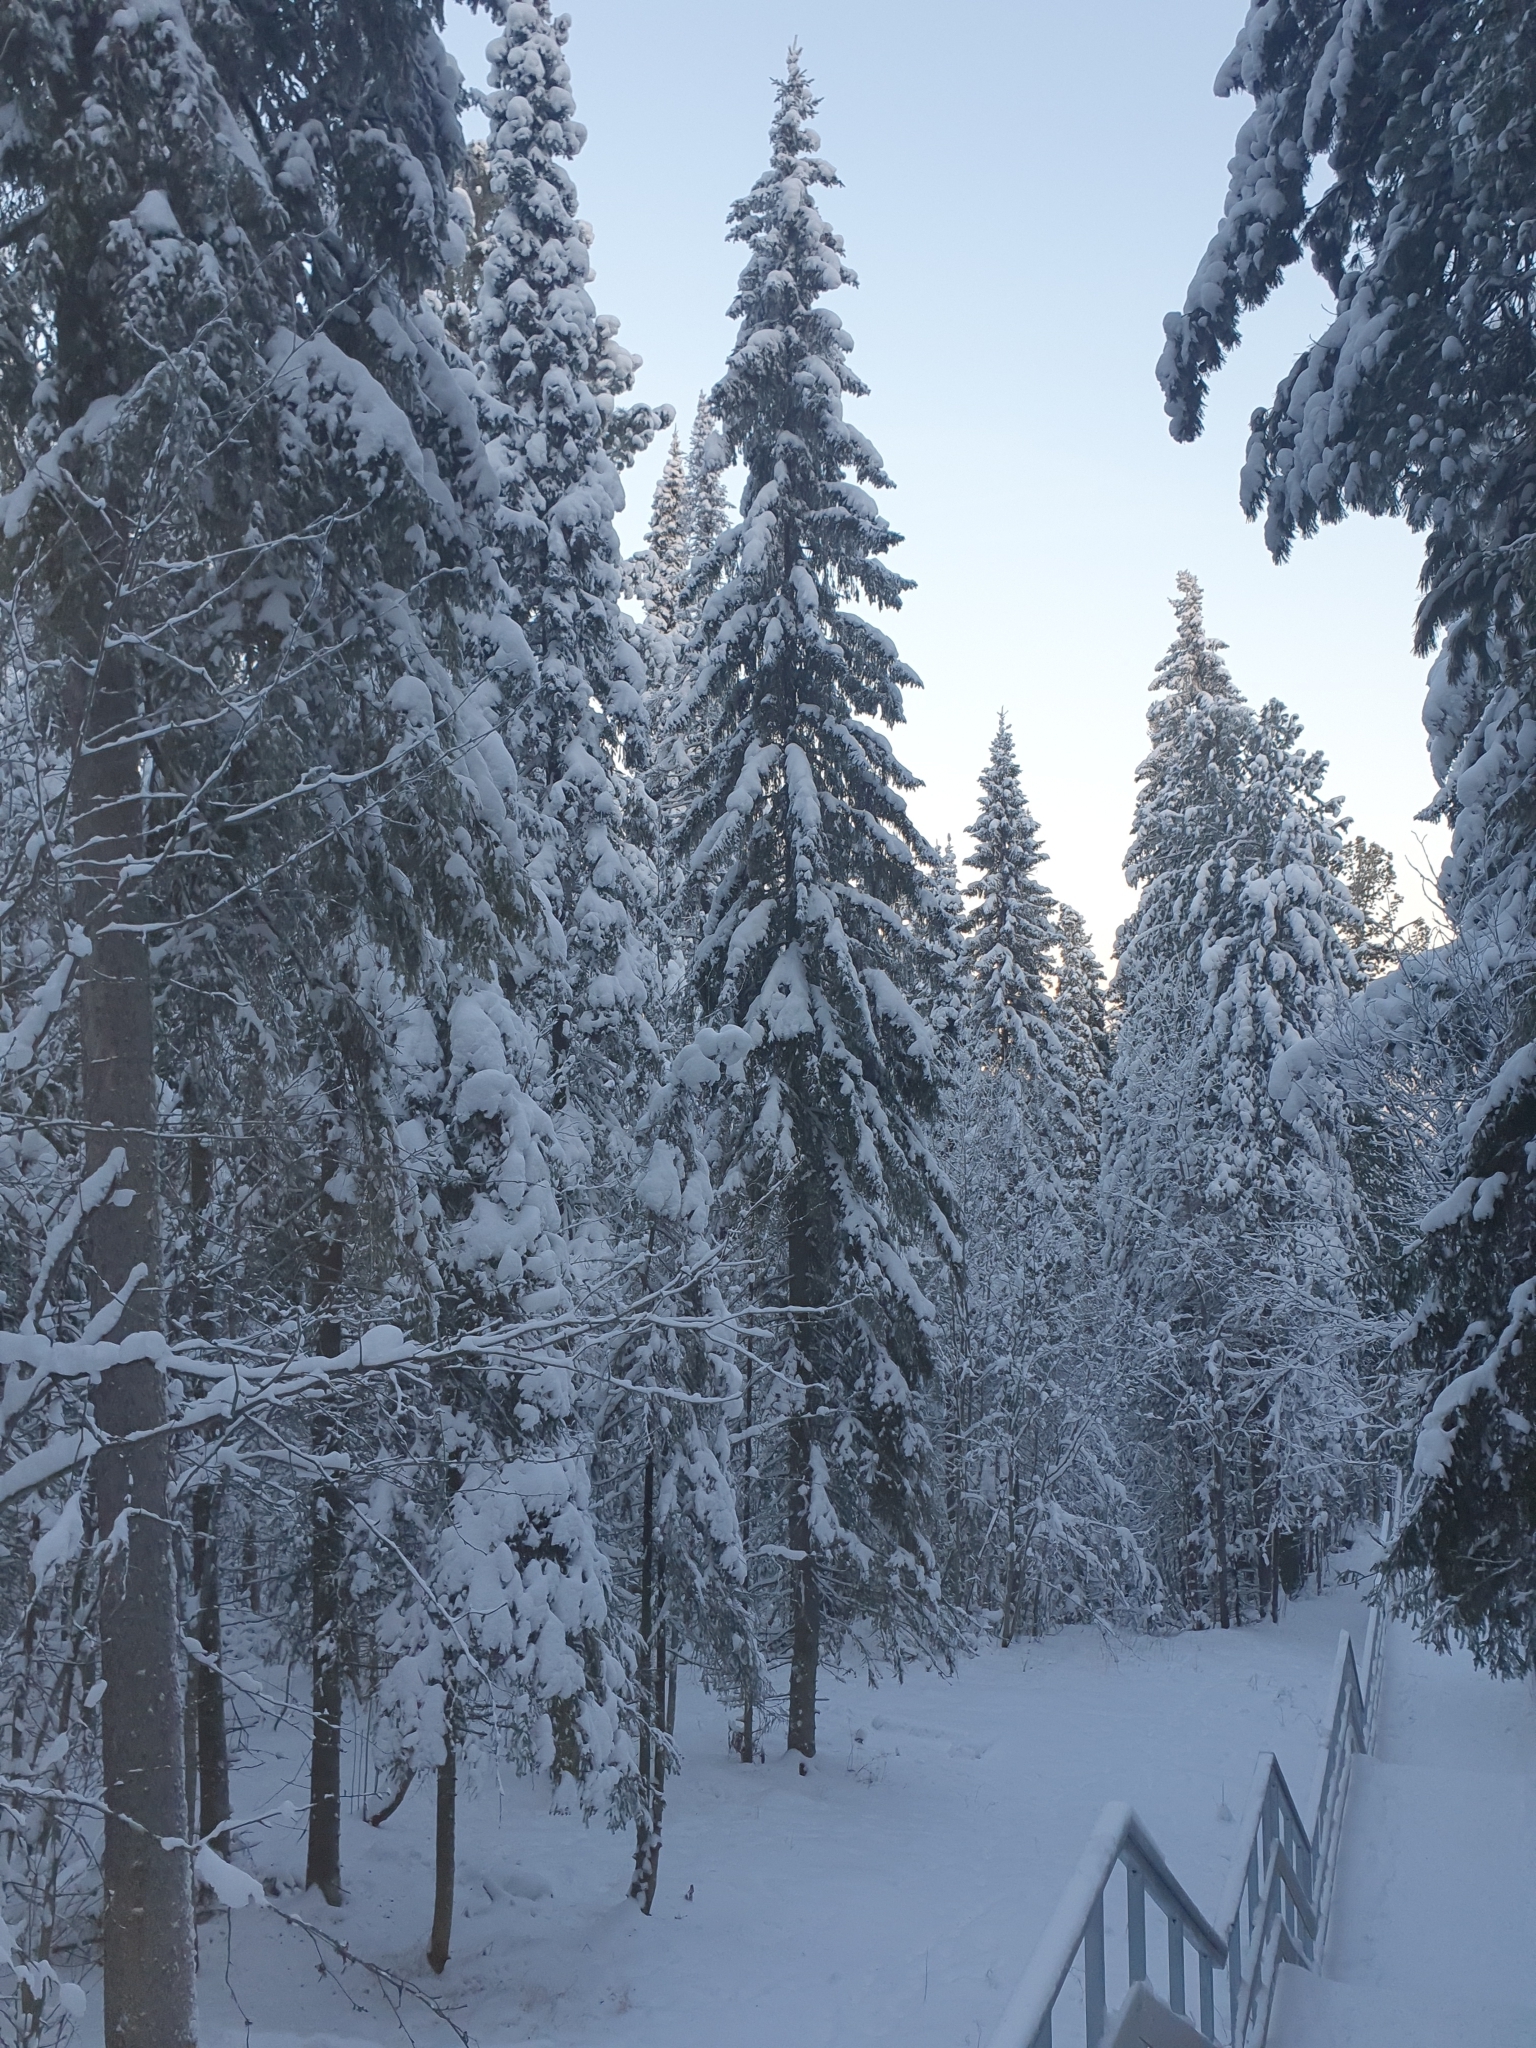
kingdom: Plantae
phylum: Tracheophyta
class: Pinopsida
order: Pinales
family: Pinaceae
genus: Picea
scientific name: Picea obovata
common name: Siberian spruce
